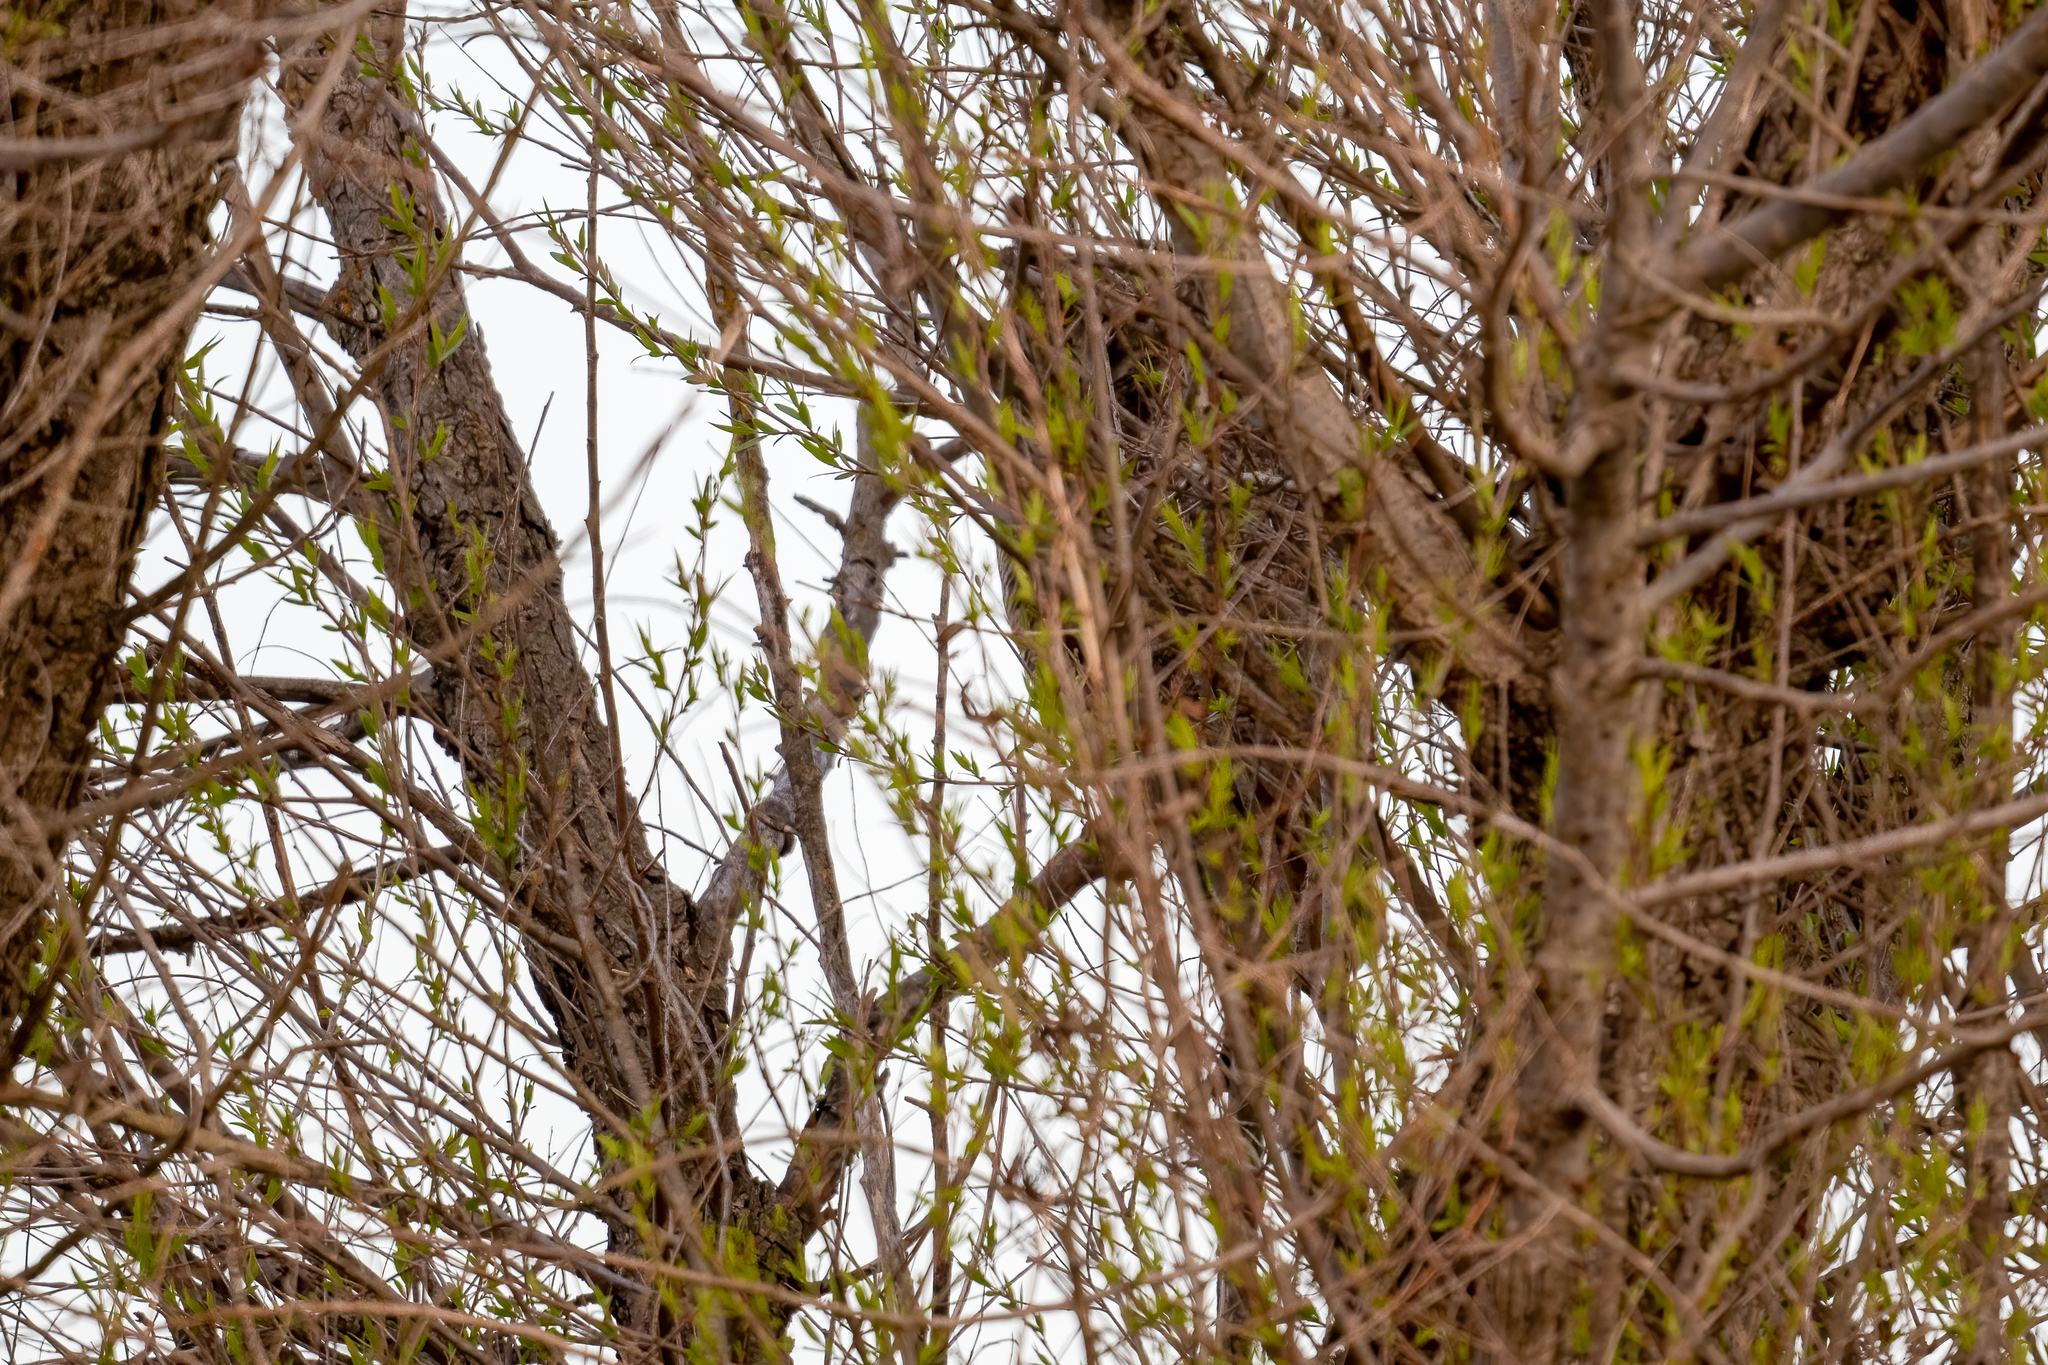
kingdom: Animalia
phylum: Chordata
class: Aves
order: Strigiformes
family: Strigidae
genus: Bubo
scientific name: Bubo virginianus
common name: Great horned owl
